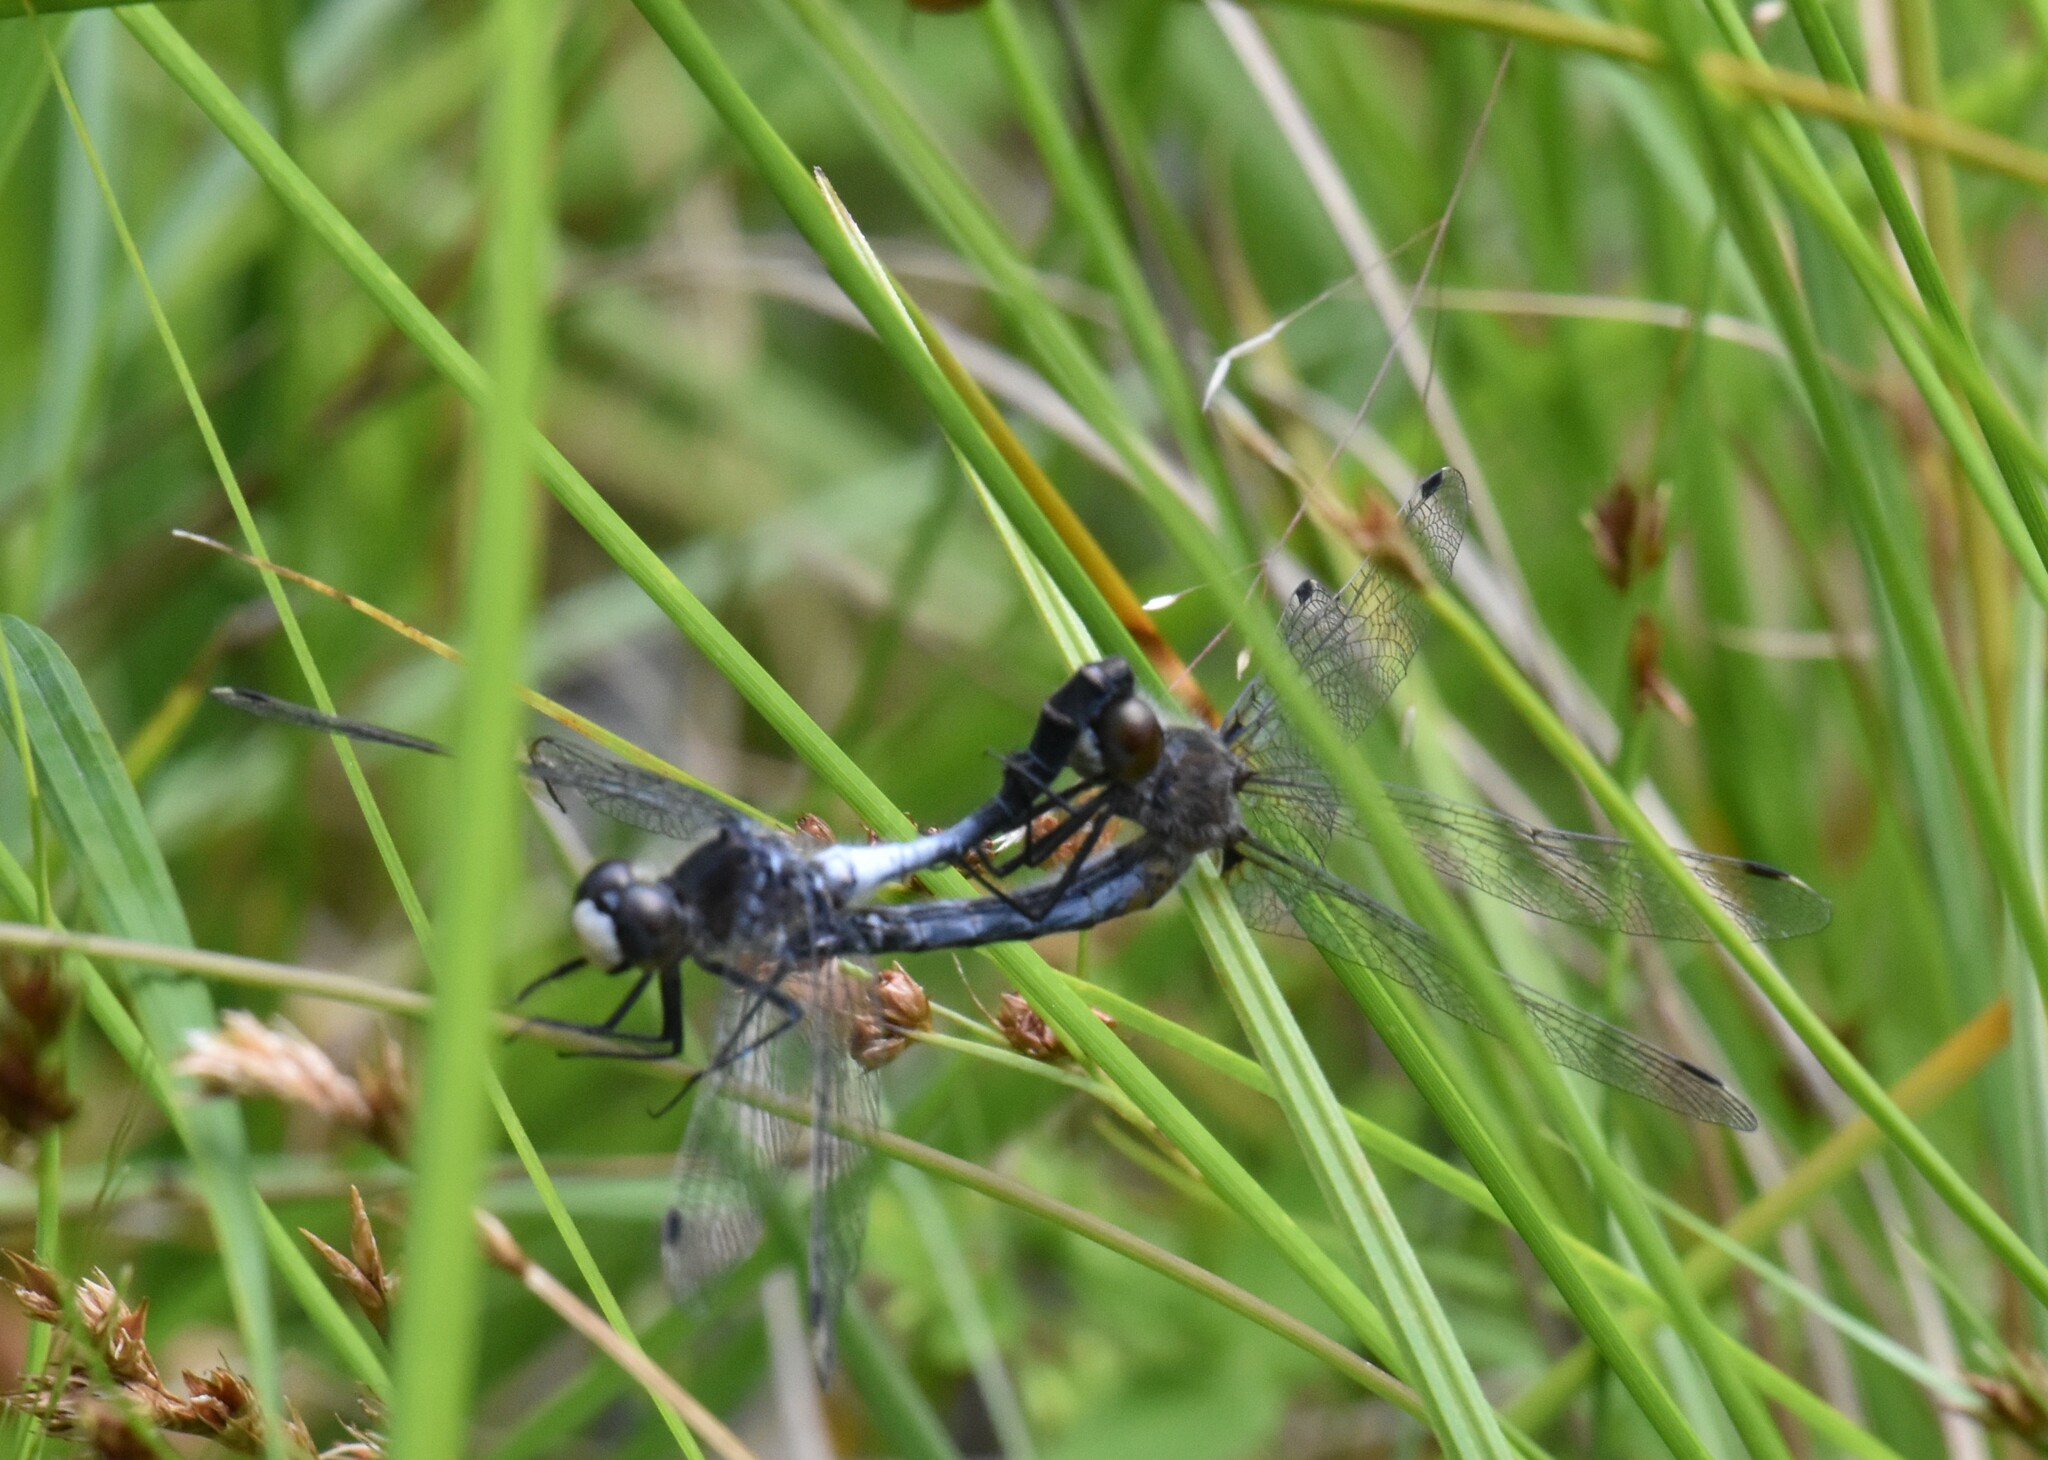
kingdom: Animalia
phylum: Arthropoda
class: Insecta
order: Odonata
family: Libellulidae
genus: Leucorrhinia
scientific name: Leucorrhinia frigida
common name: Frosted whiteface
